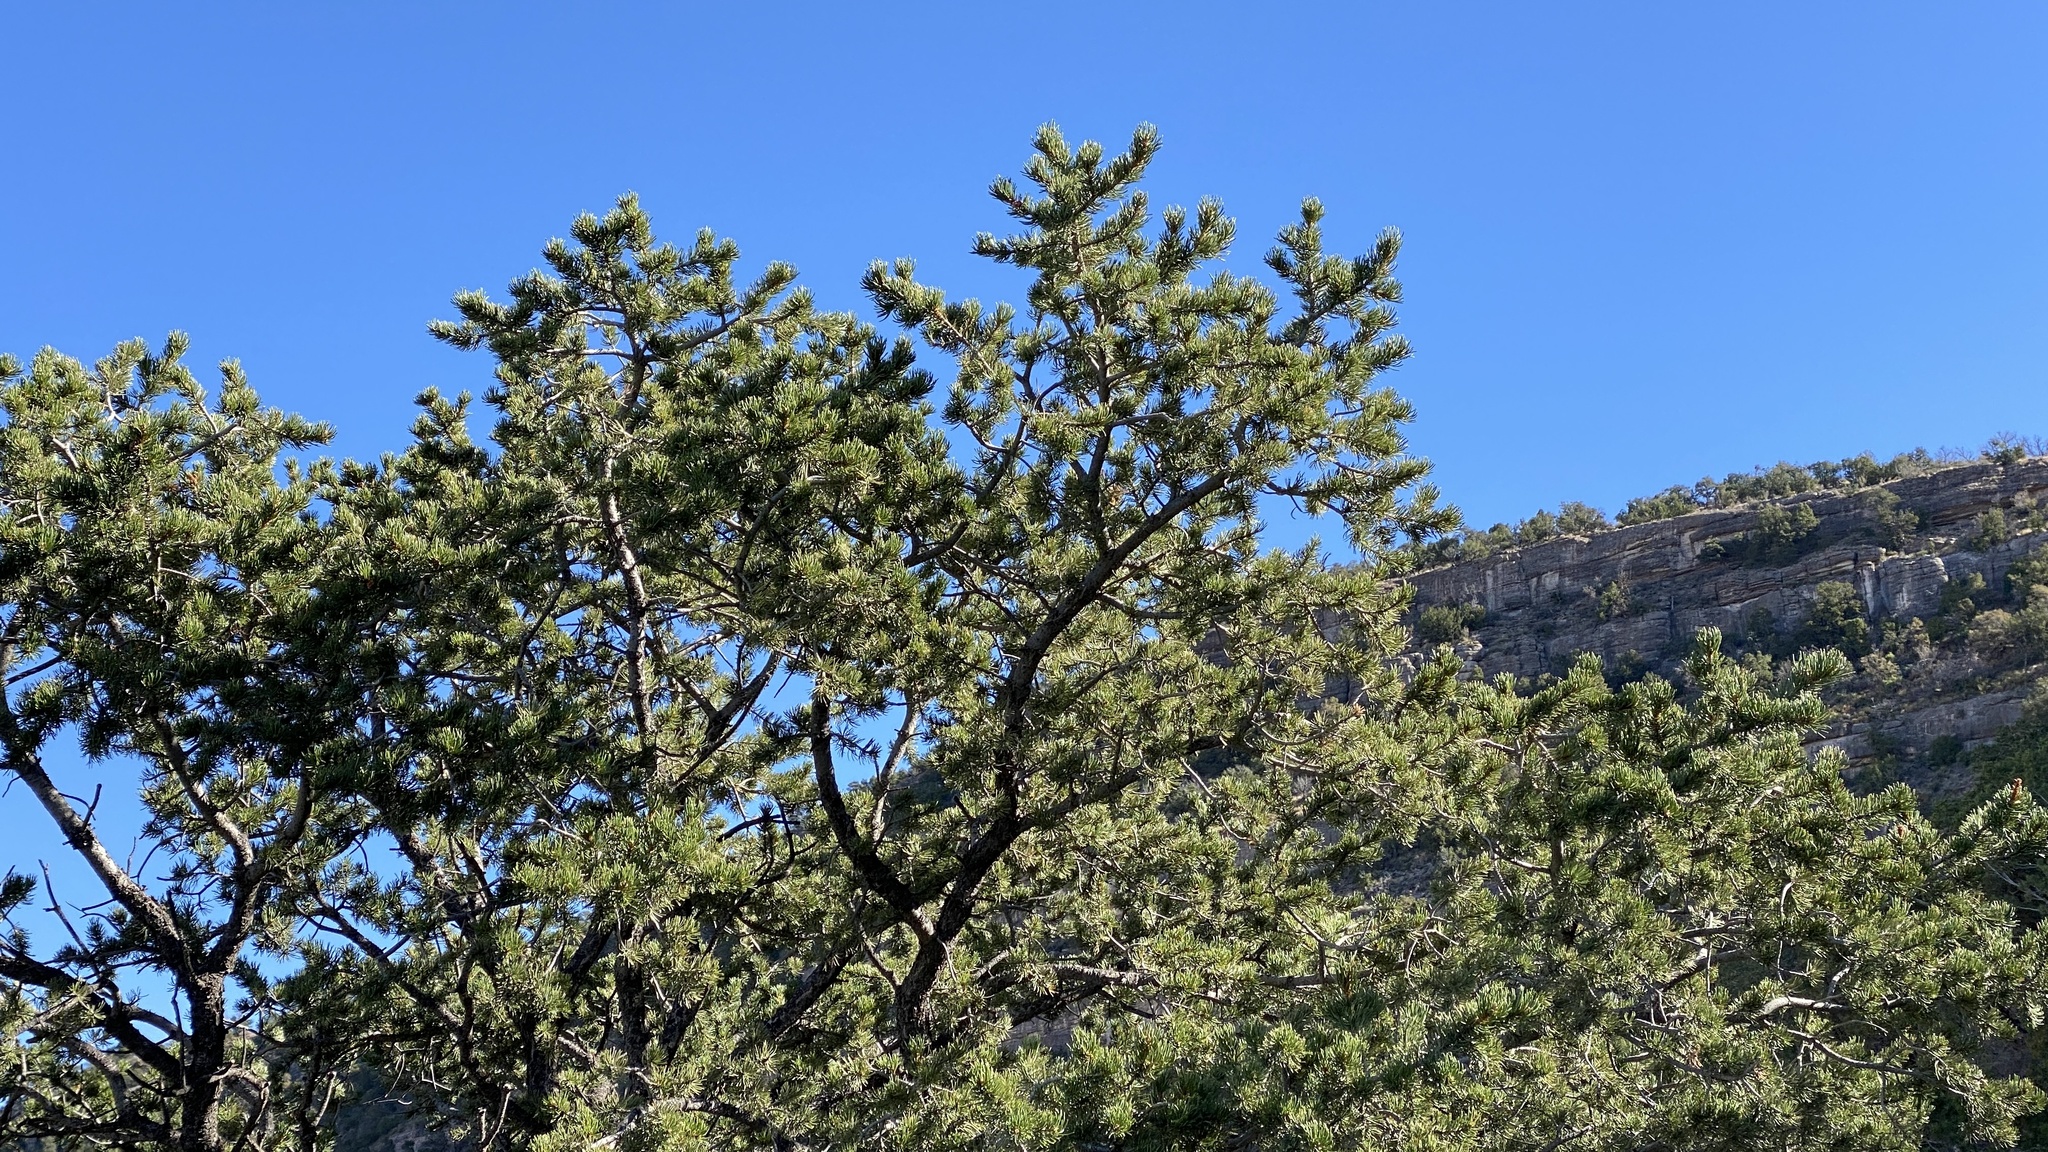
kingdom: Plantae
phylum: Tracheophyta
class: Pinopsida
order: Pinales
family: Pinaceae
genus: Pinus
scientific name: Pinus edulis
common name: Colorado pinyon
